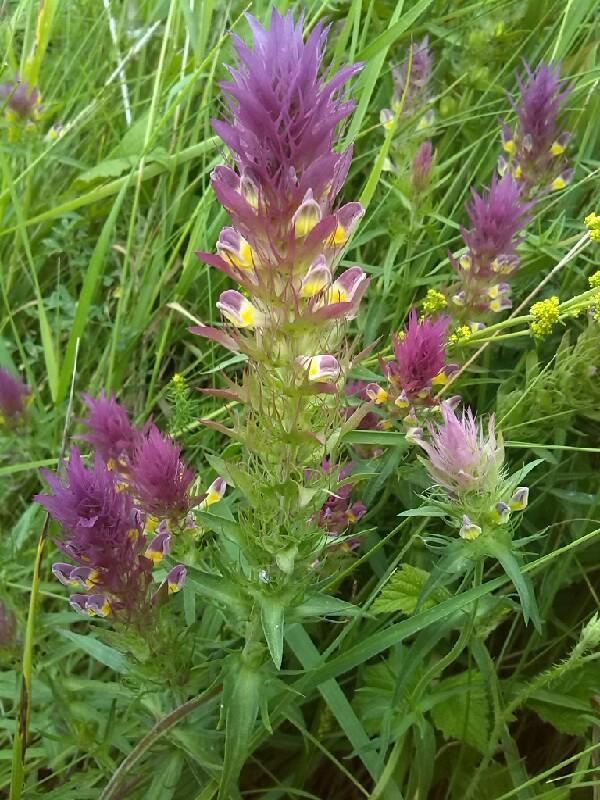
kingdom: Plantae
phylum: Tracheophyta
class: Magnoliopsida
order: Lamiales
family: Orobanchaceae
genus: Melampyrum
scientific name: Melampyrum arvense
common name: Field cow-wheat
